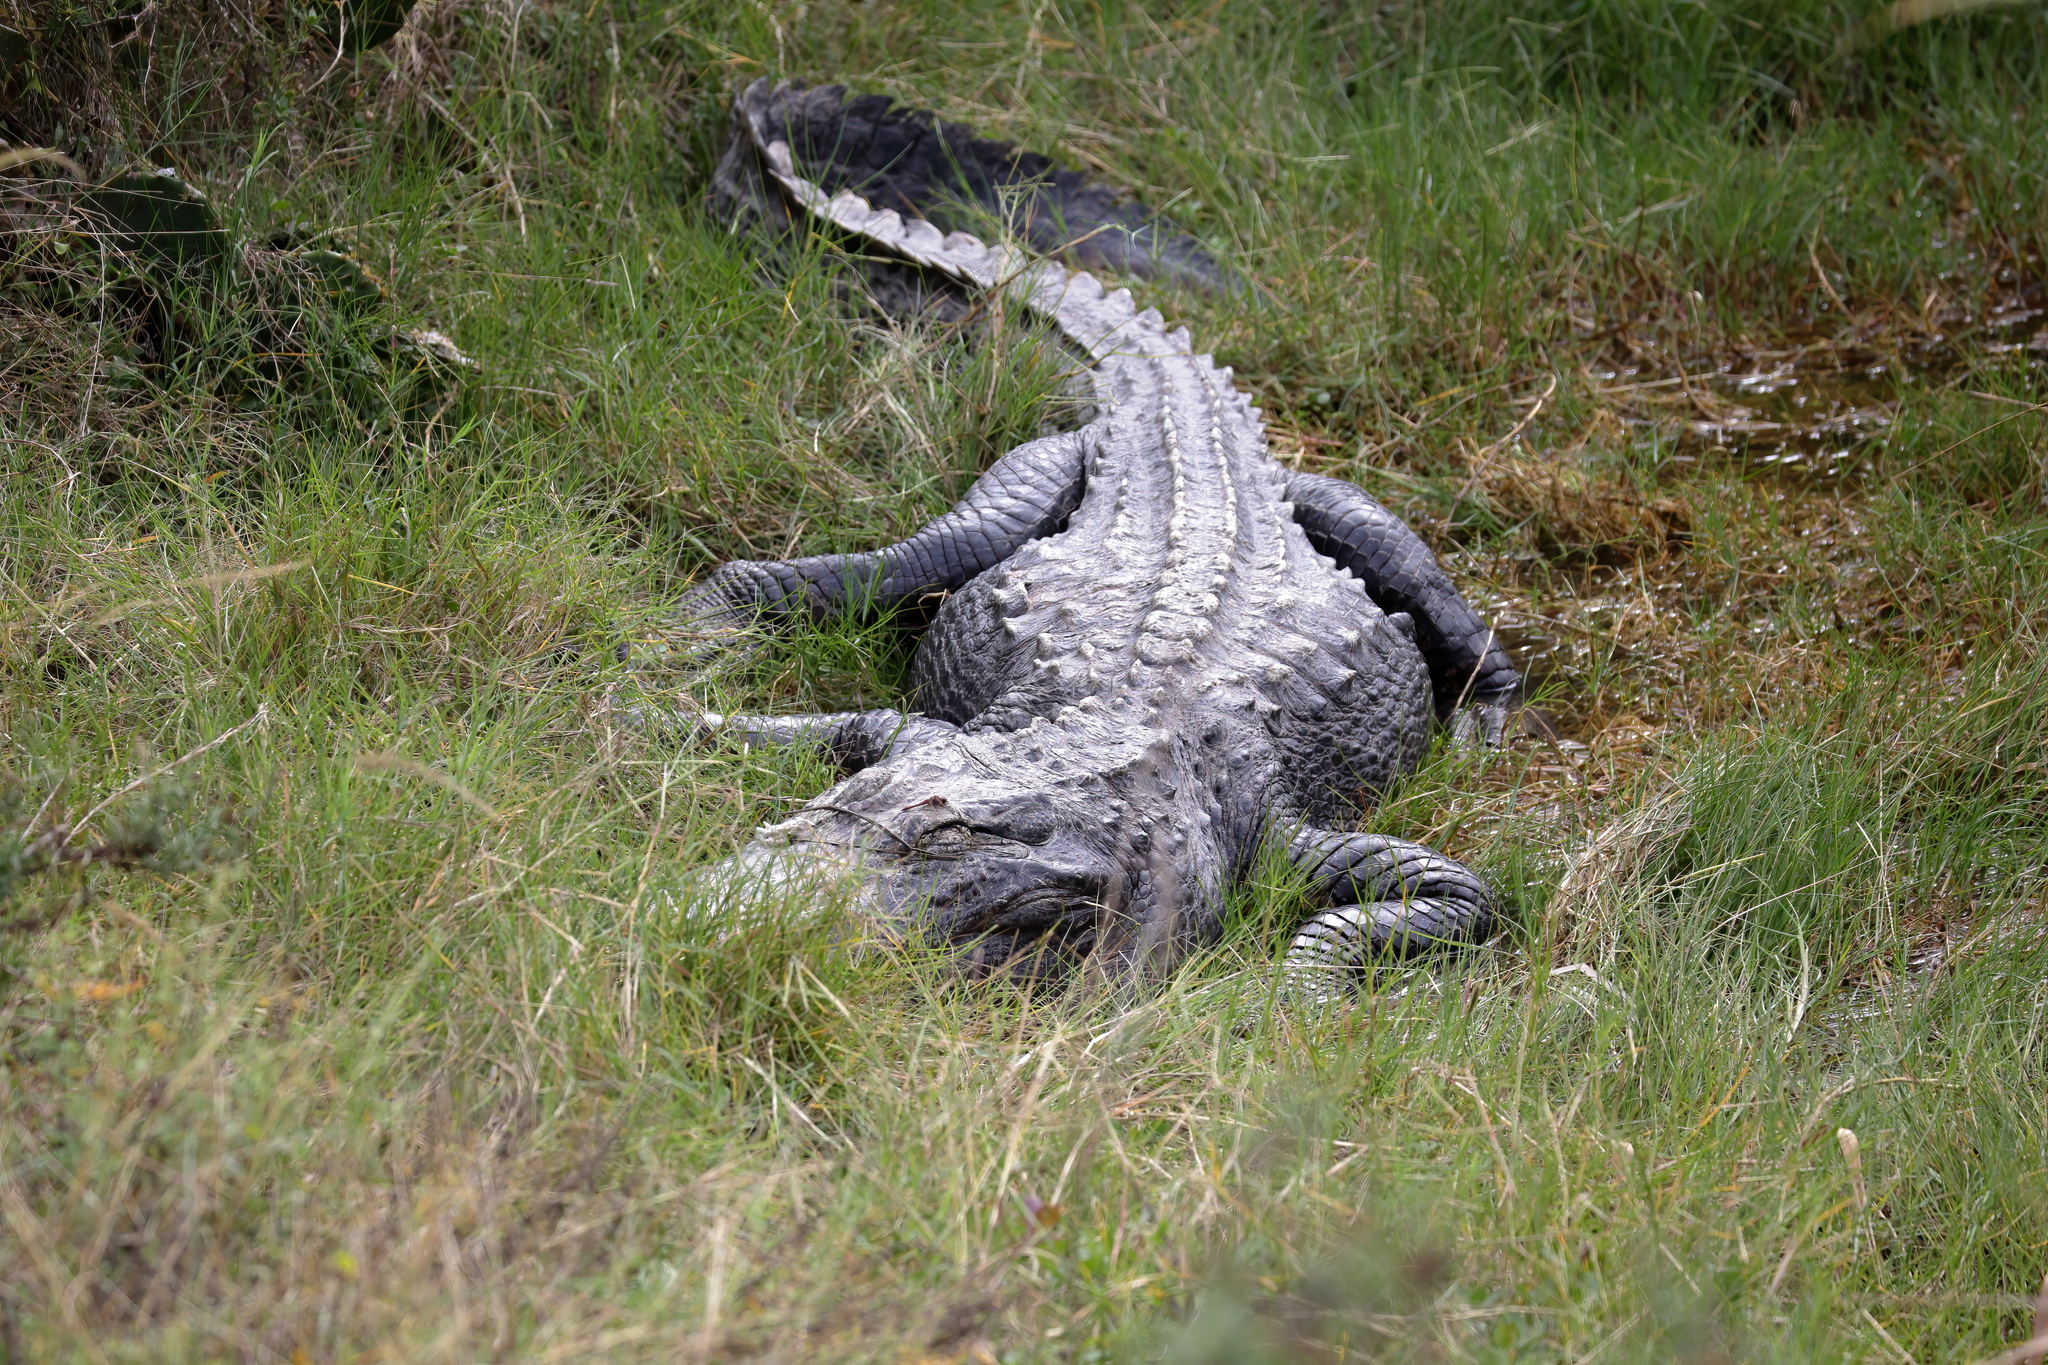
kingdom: Animalia
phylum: Chordata
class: Crocodylia
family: Alligatoridae
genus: Alligator
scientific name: Alligator mississippiensis
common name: American alligator
